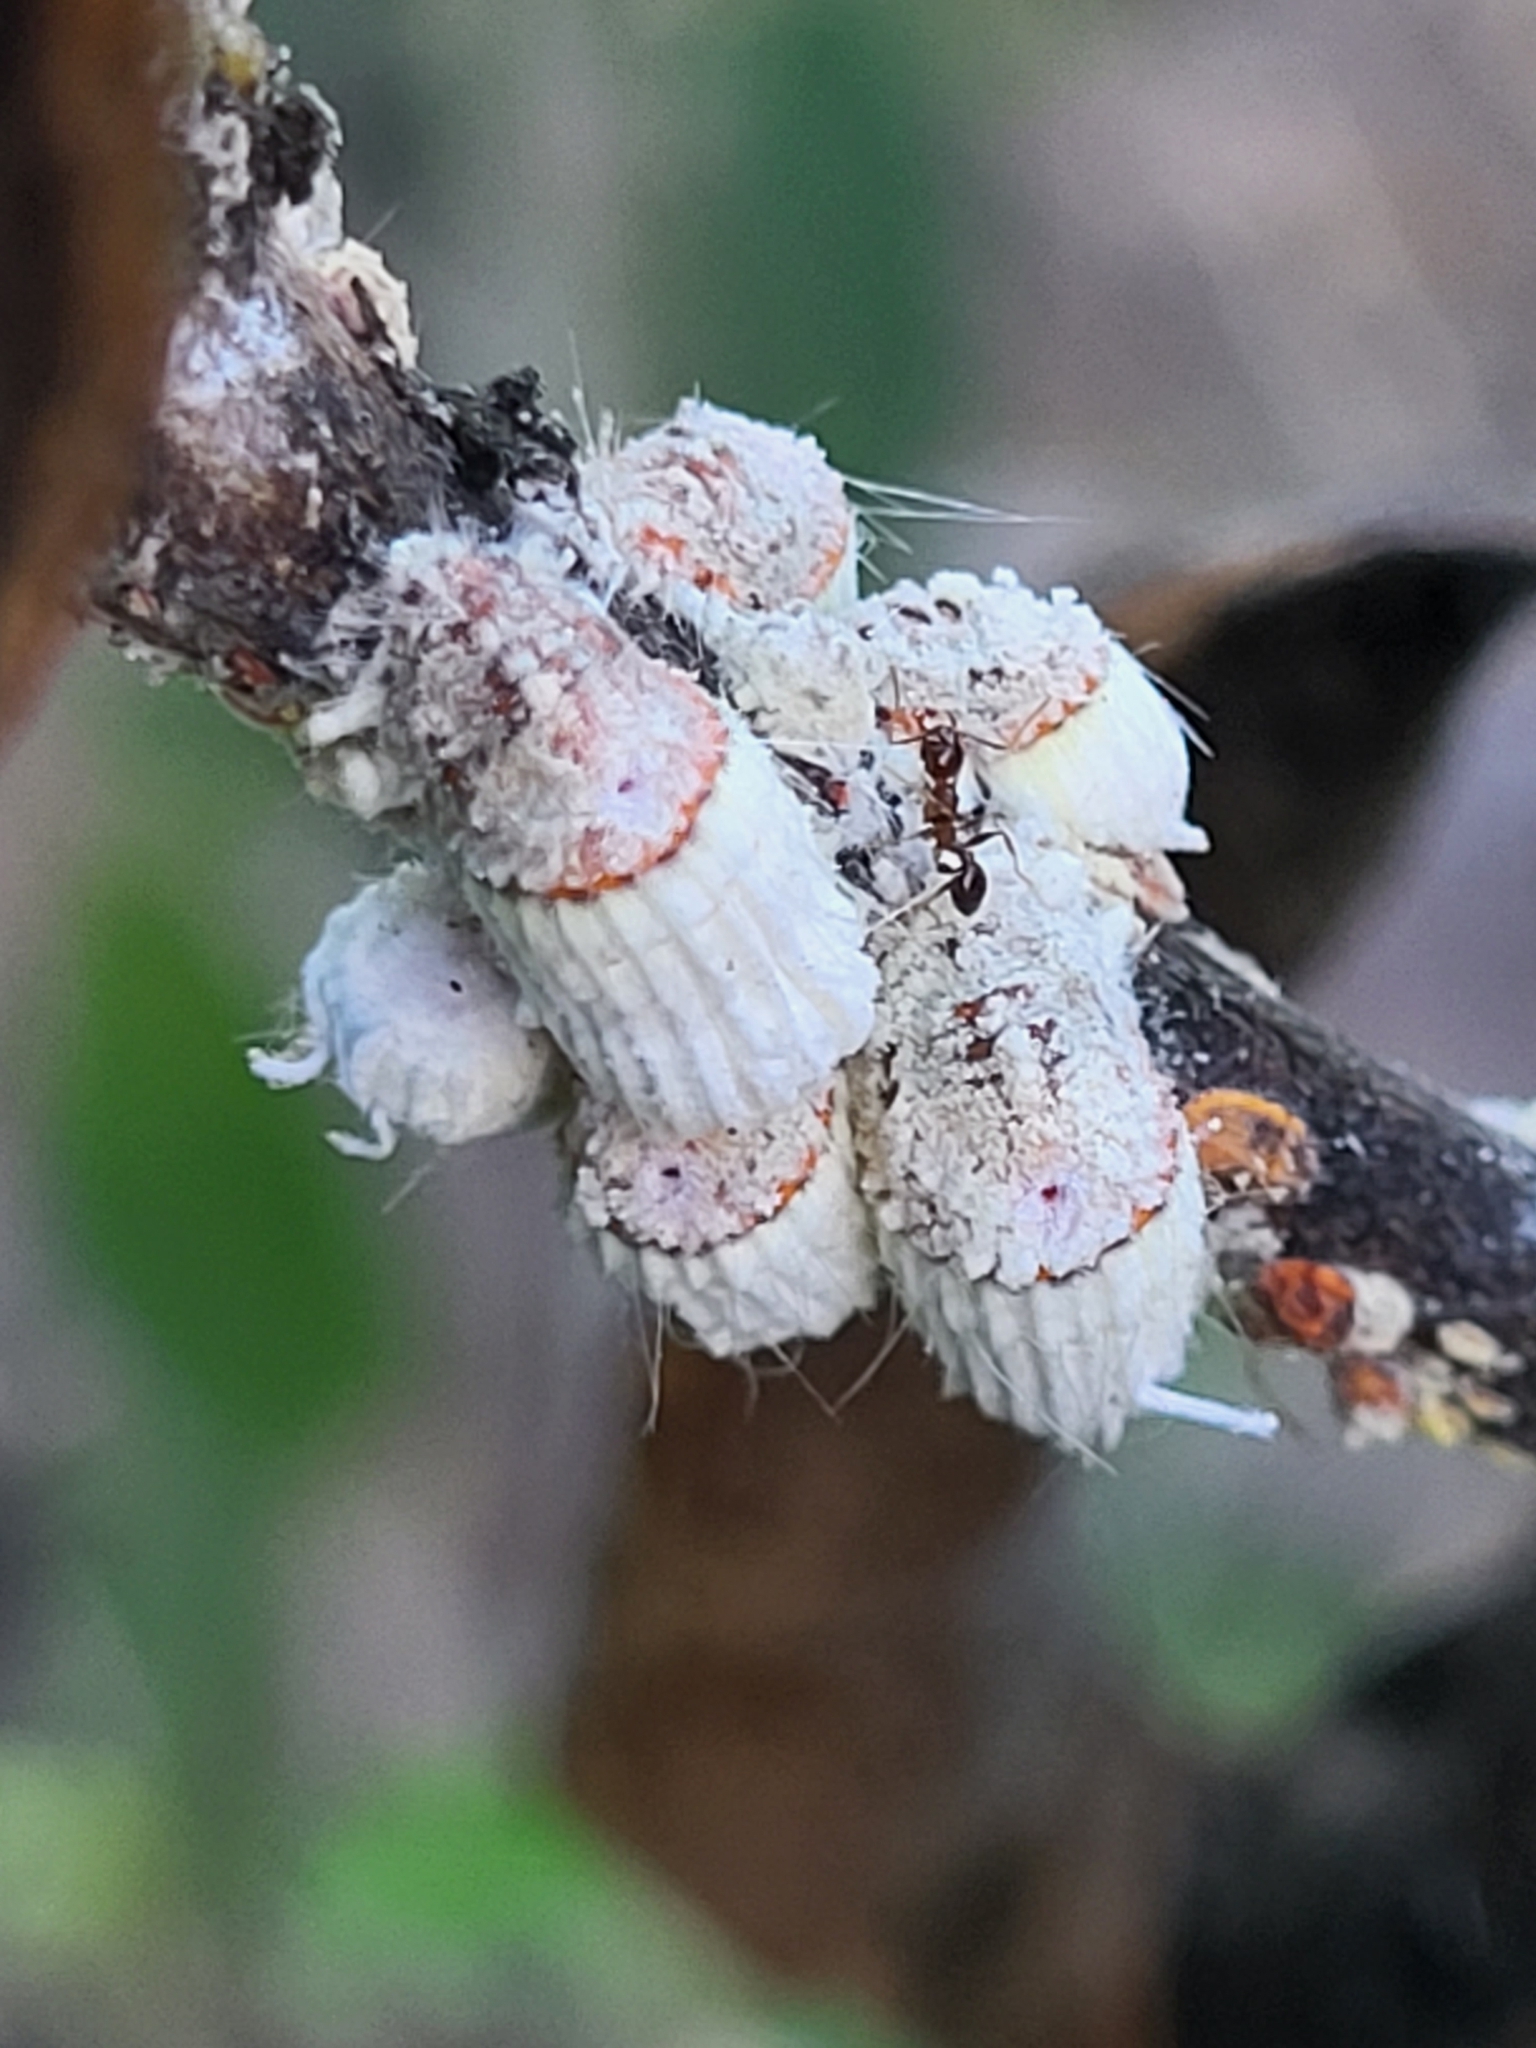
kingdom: Animalia
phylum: Arthropoda
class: Insecta
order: Hemiptera
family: Margarodidae
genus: Icerya
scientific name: Icerya purchasi
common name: Cottony cushion scale
